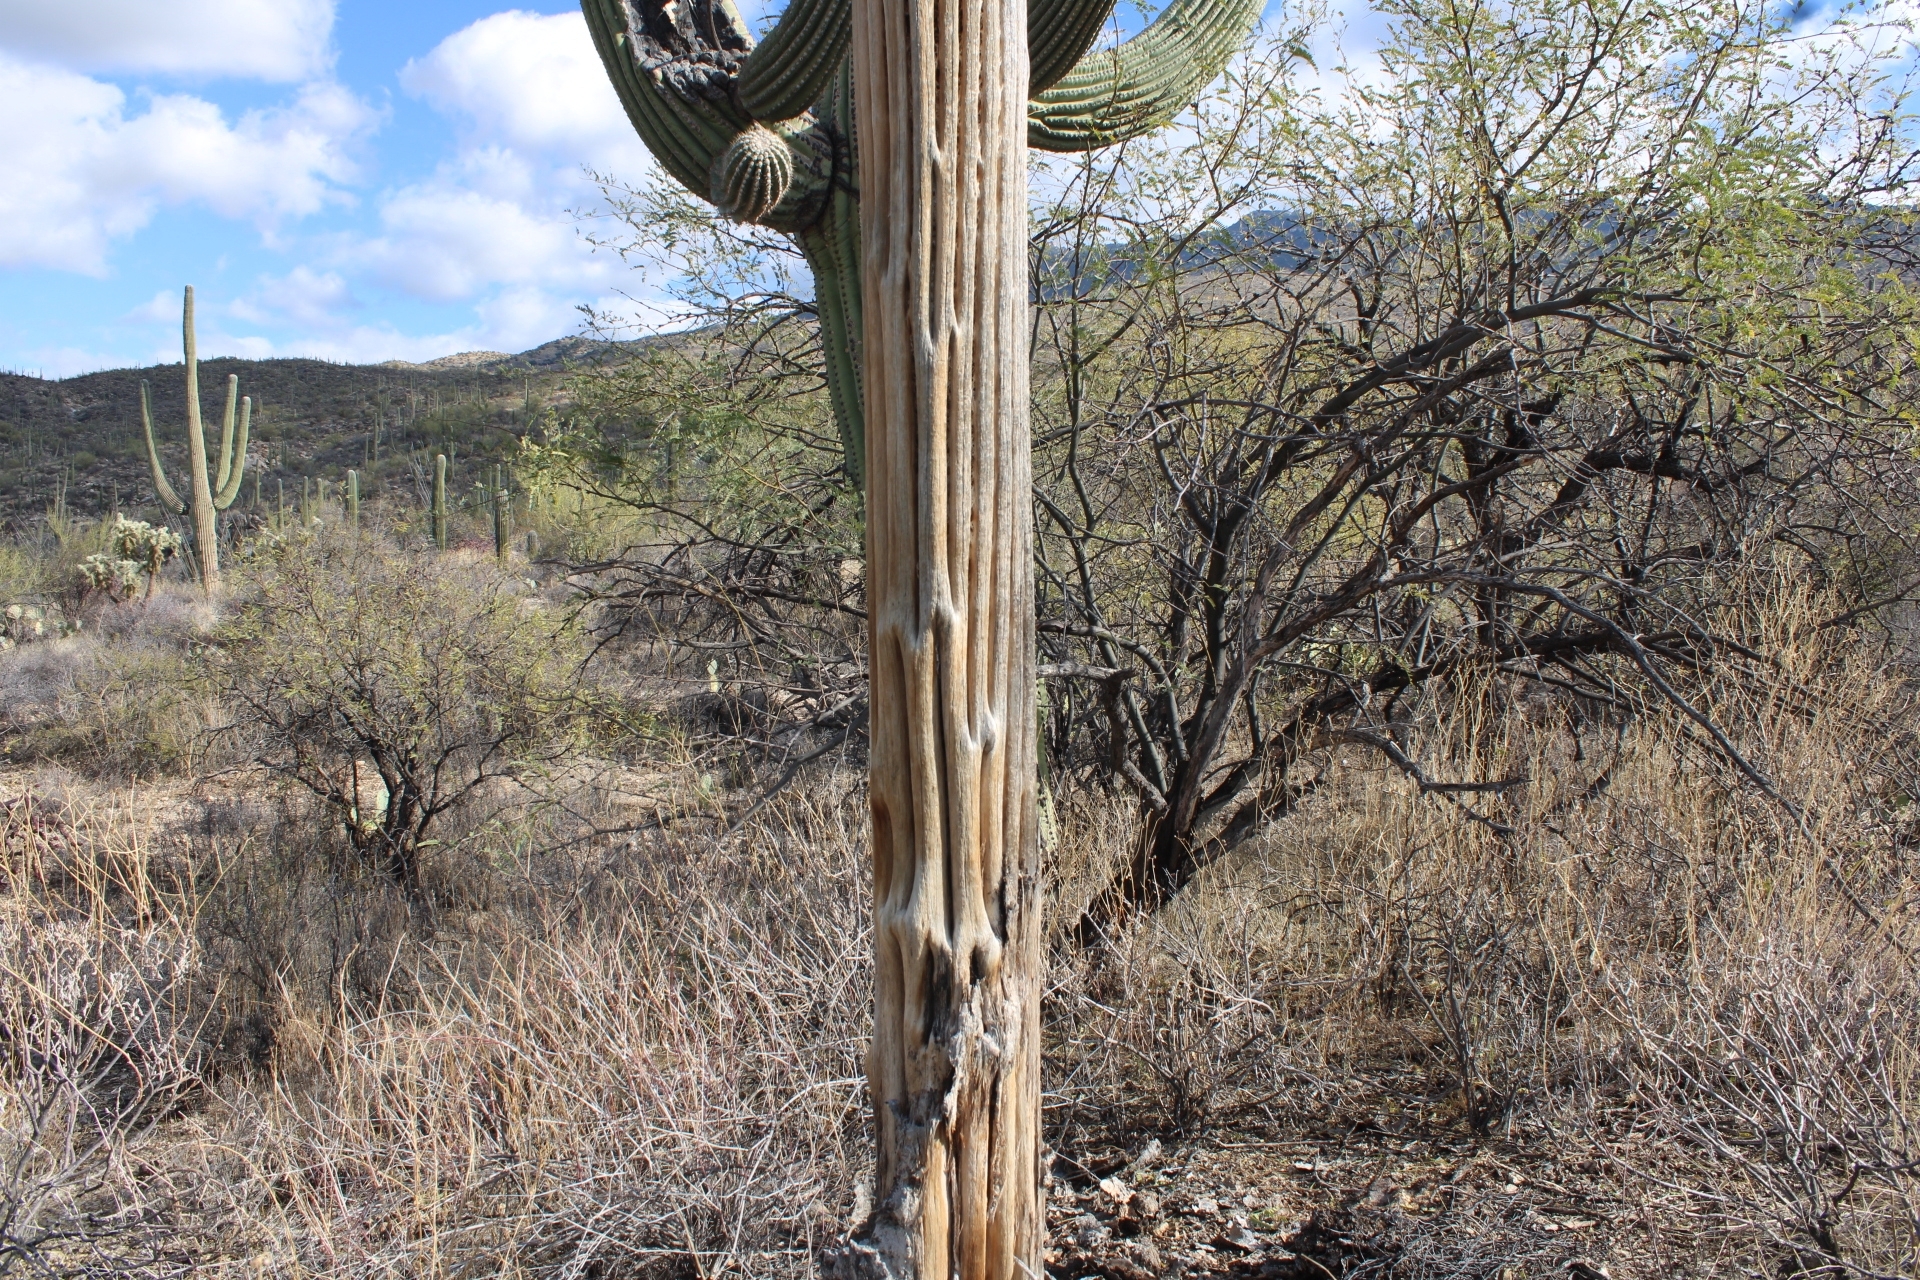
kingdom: Plantae
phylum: Tracheophyta
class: Magnoliopsida
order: Caryophyllales
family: Cactaceae
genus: Carnegiea
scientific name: Carnegiea gigantea
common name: Saguaro
